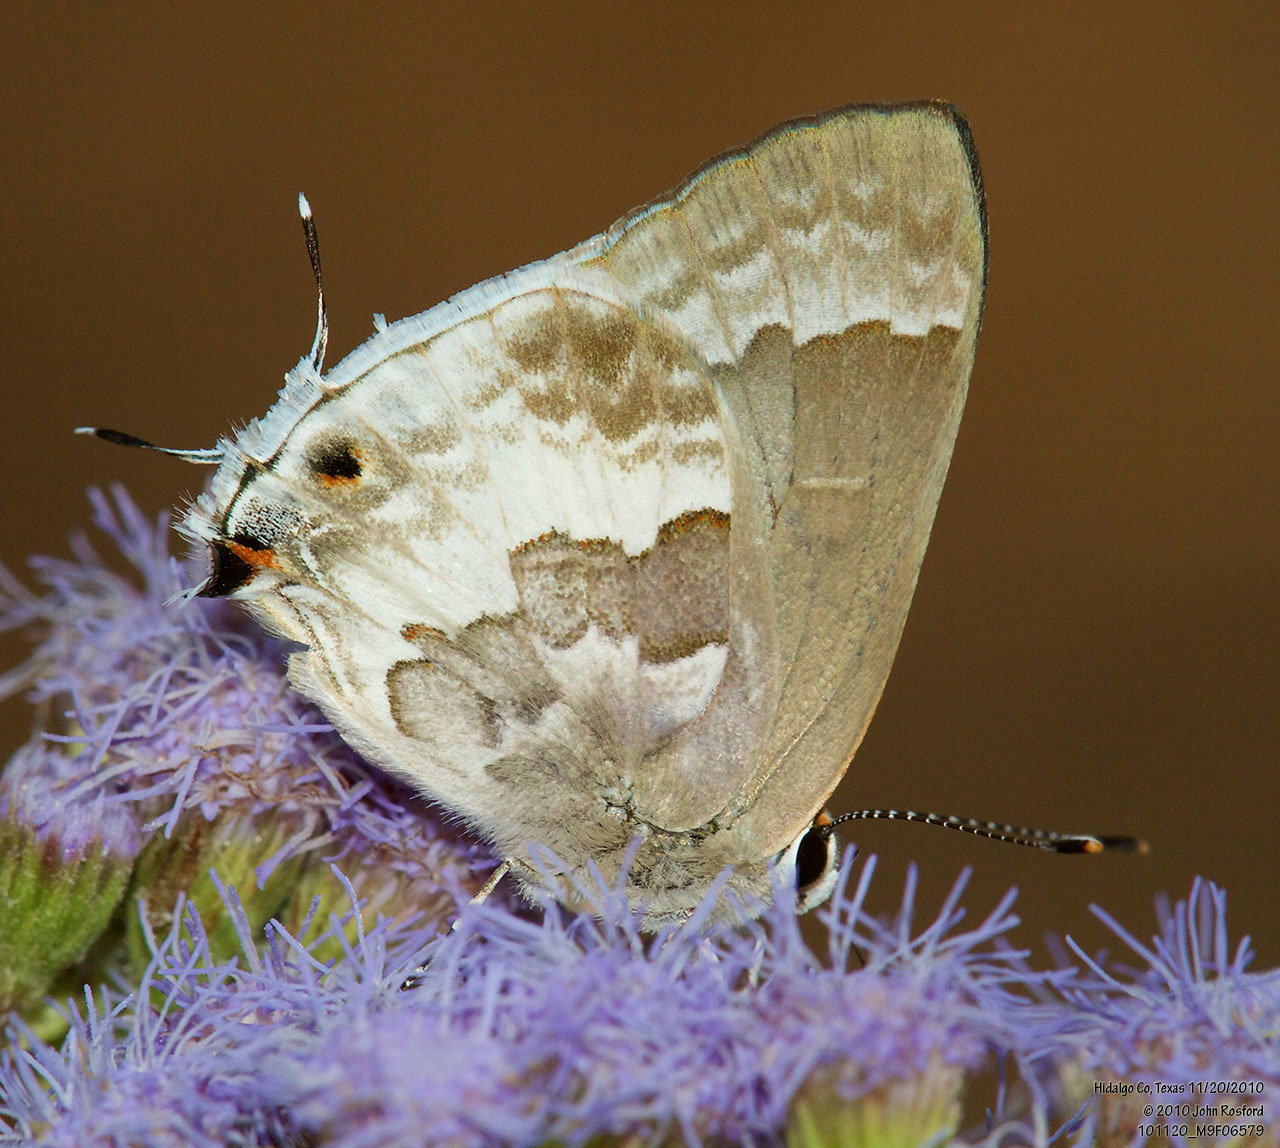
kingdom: Animalia
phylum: Arthropoda
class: Insecta
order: Lepidoptera
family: Lycaenidae
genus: Strymon
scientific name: Strymon albata
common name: White scrub-hairstreak
